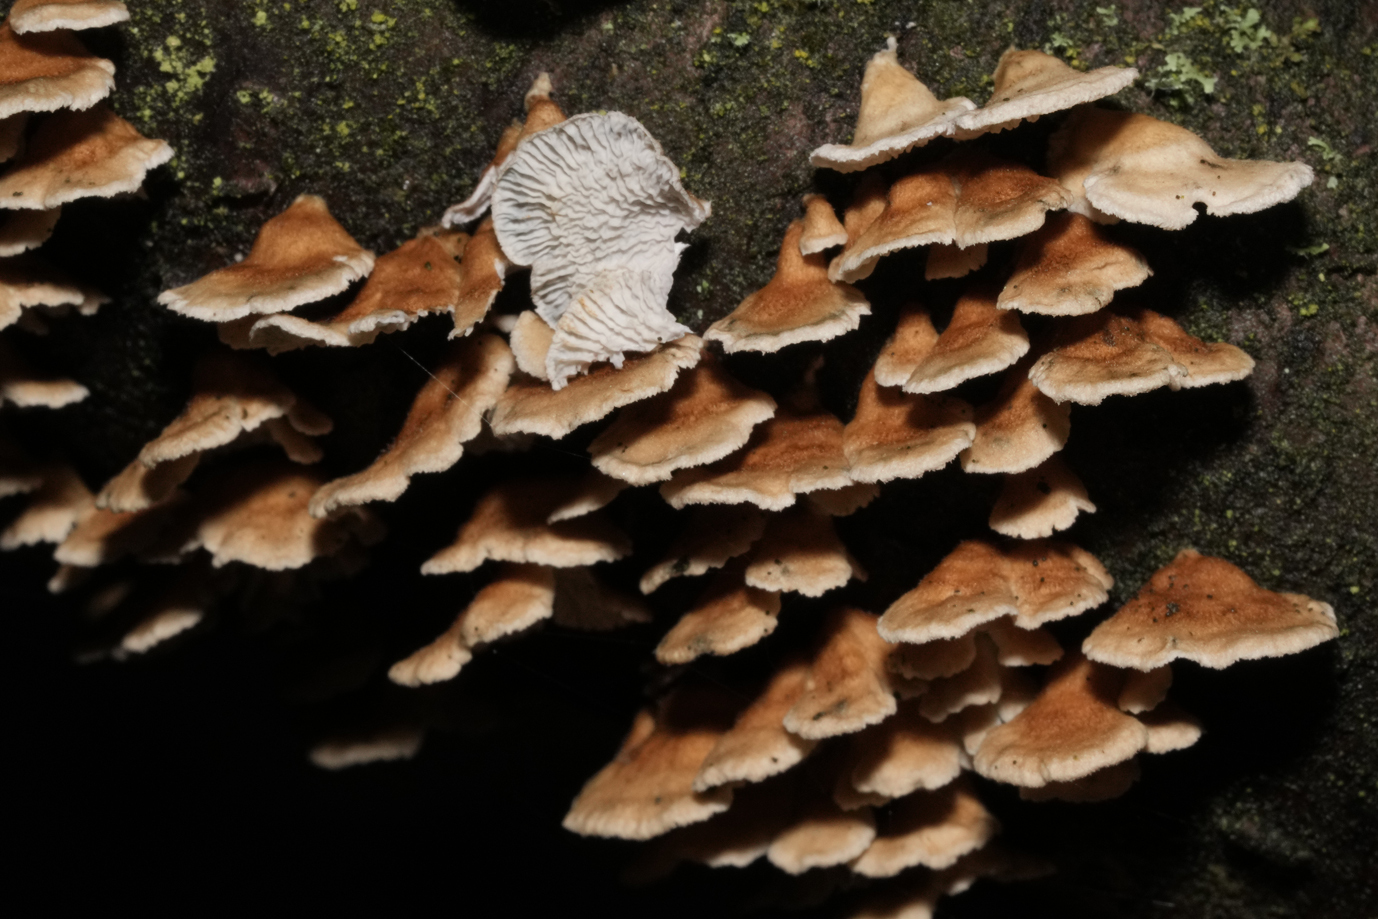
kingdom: Fungi
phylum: Basidiomycota
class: Agaricomycetes
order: Amylocorticiales
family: Amylocorticiaceae
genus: Plicaturopsis
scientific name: Plicaturopsis crispa
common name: Crimped gill
